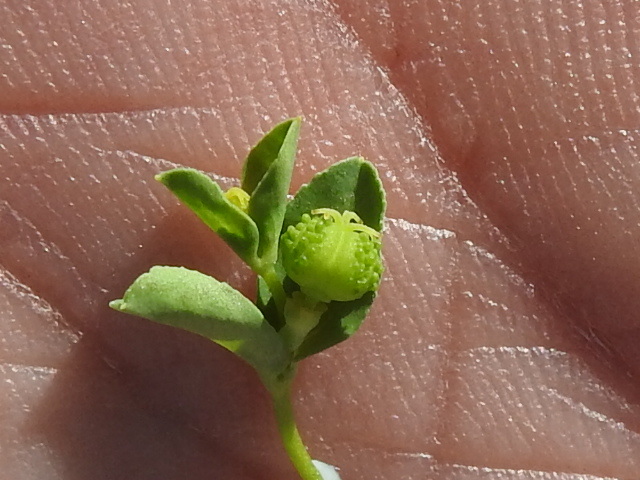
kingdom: Plantae
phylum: Tracheophyta
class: Magnoliopsida
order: Malpighiales
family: Euphorbiaceae
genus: Euphorbia
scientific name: Euphorbia spathulata
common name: Blunt spurge
